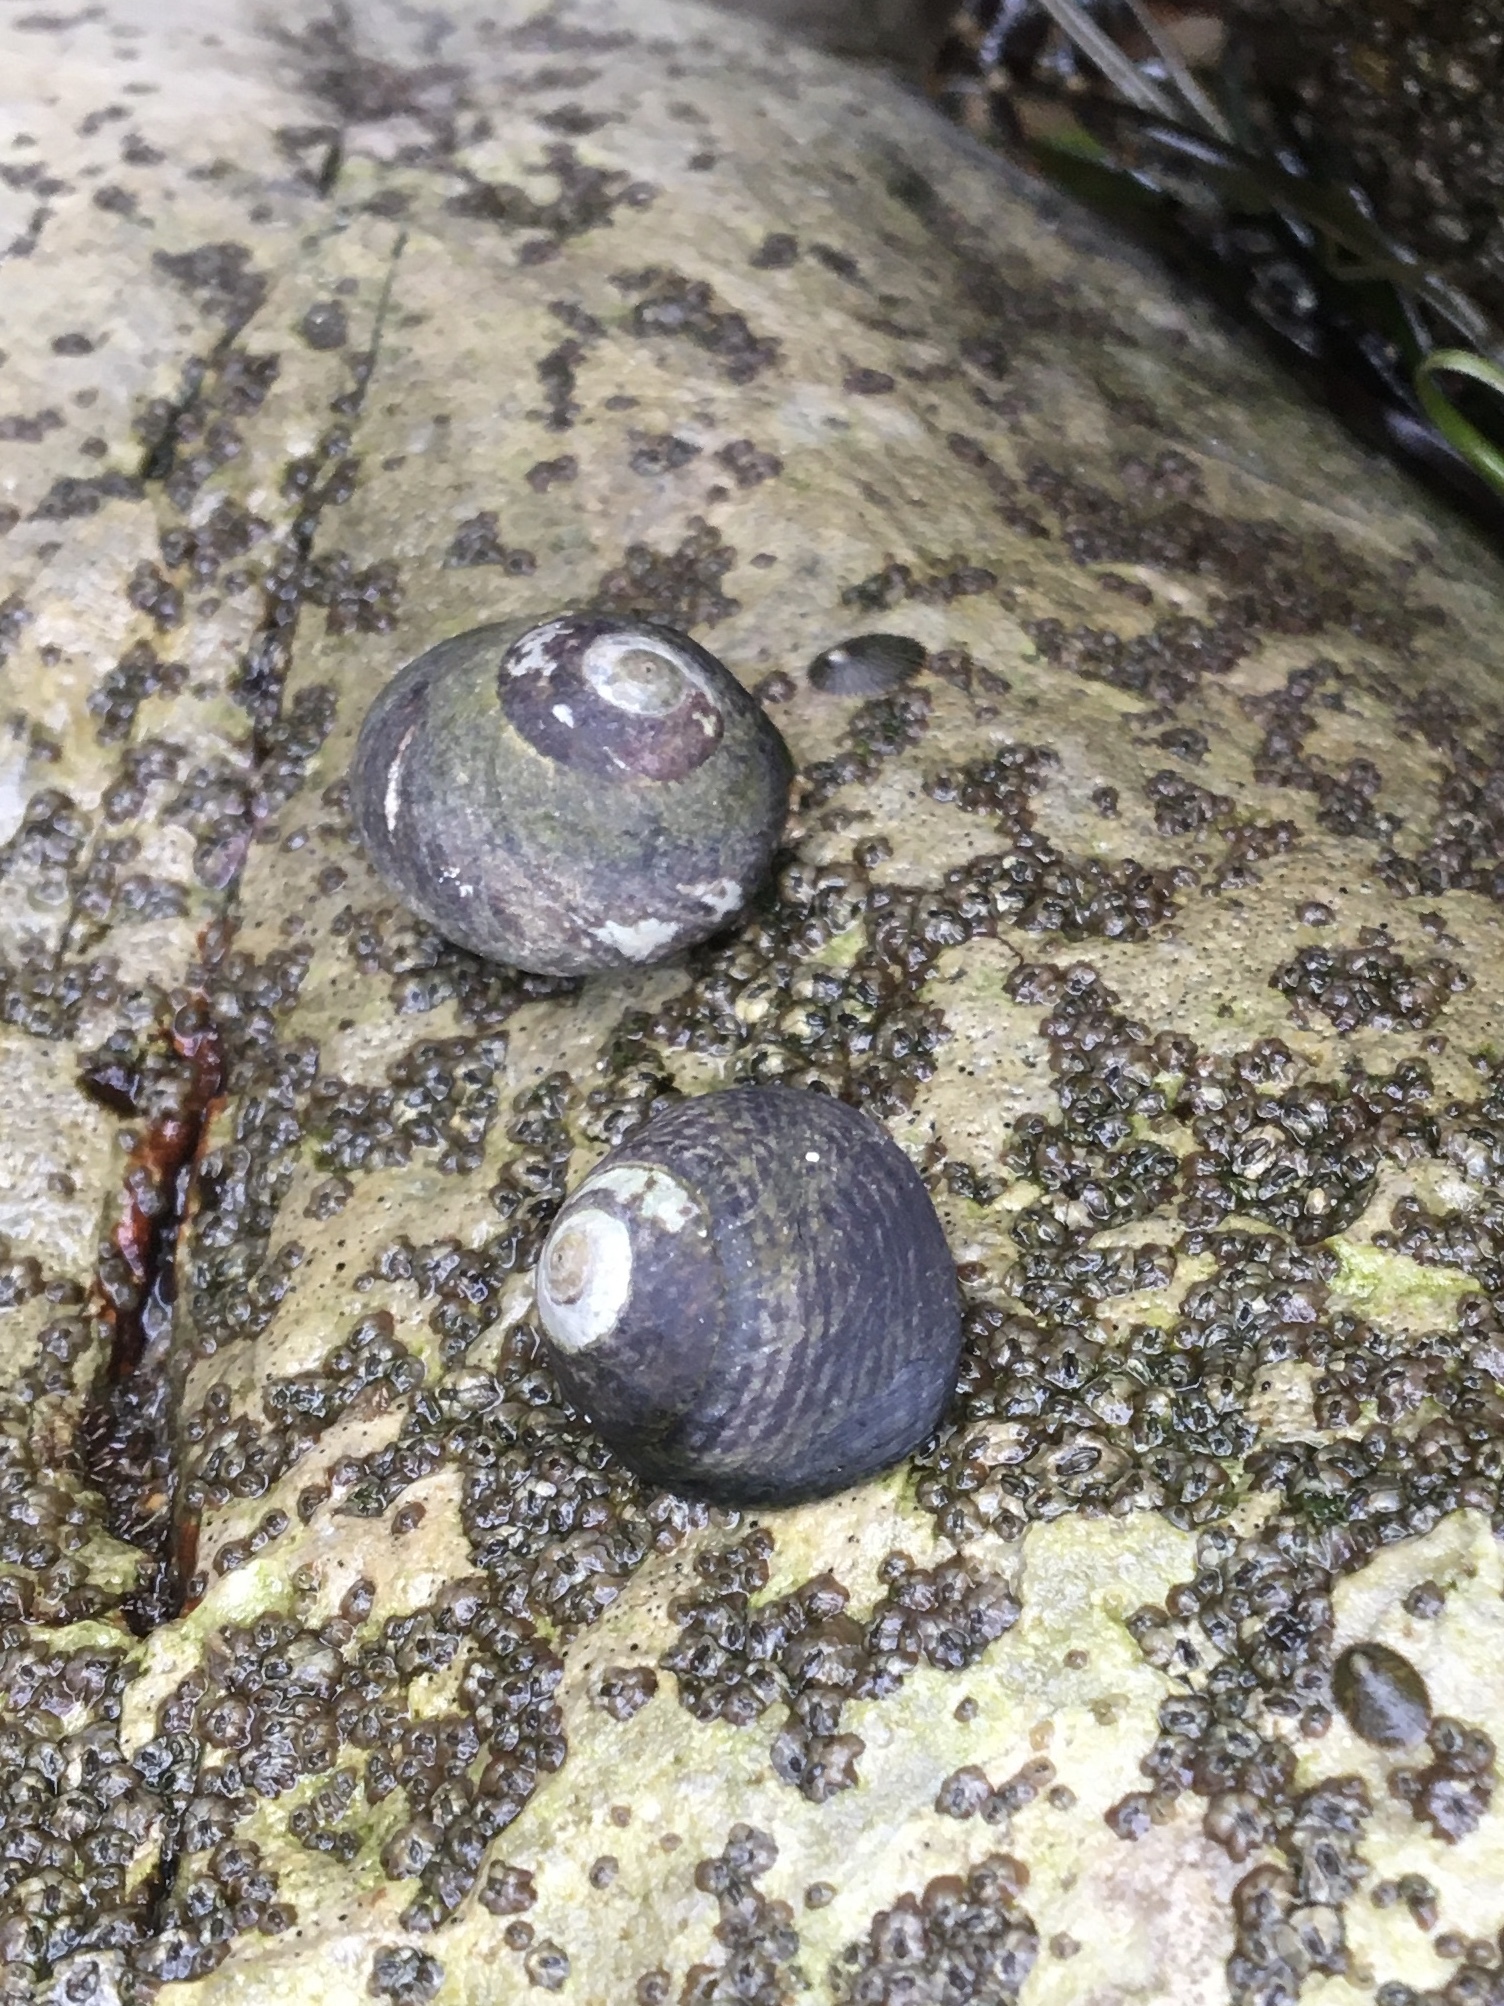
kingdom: Animalia
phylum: Mollusca
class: Gastropoda
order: Trochida
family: Tegulidae
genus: Tegula
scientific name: Tegula funebralis
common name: Black tegula
